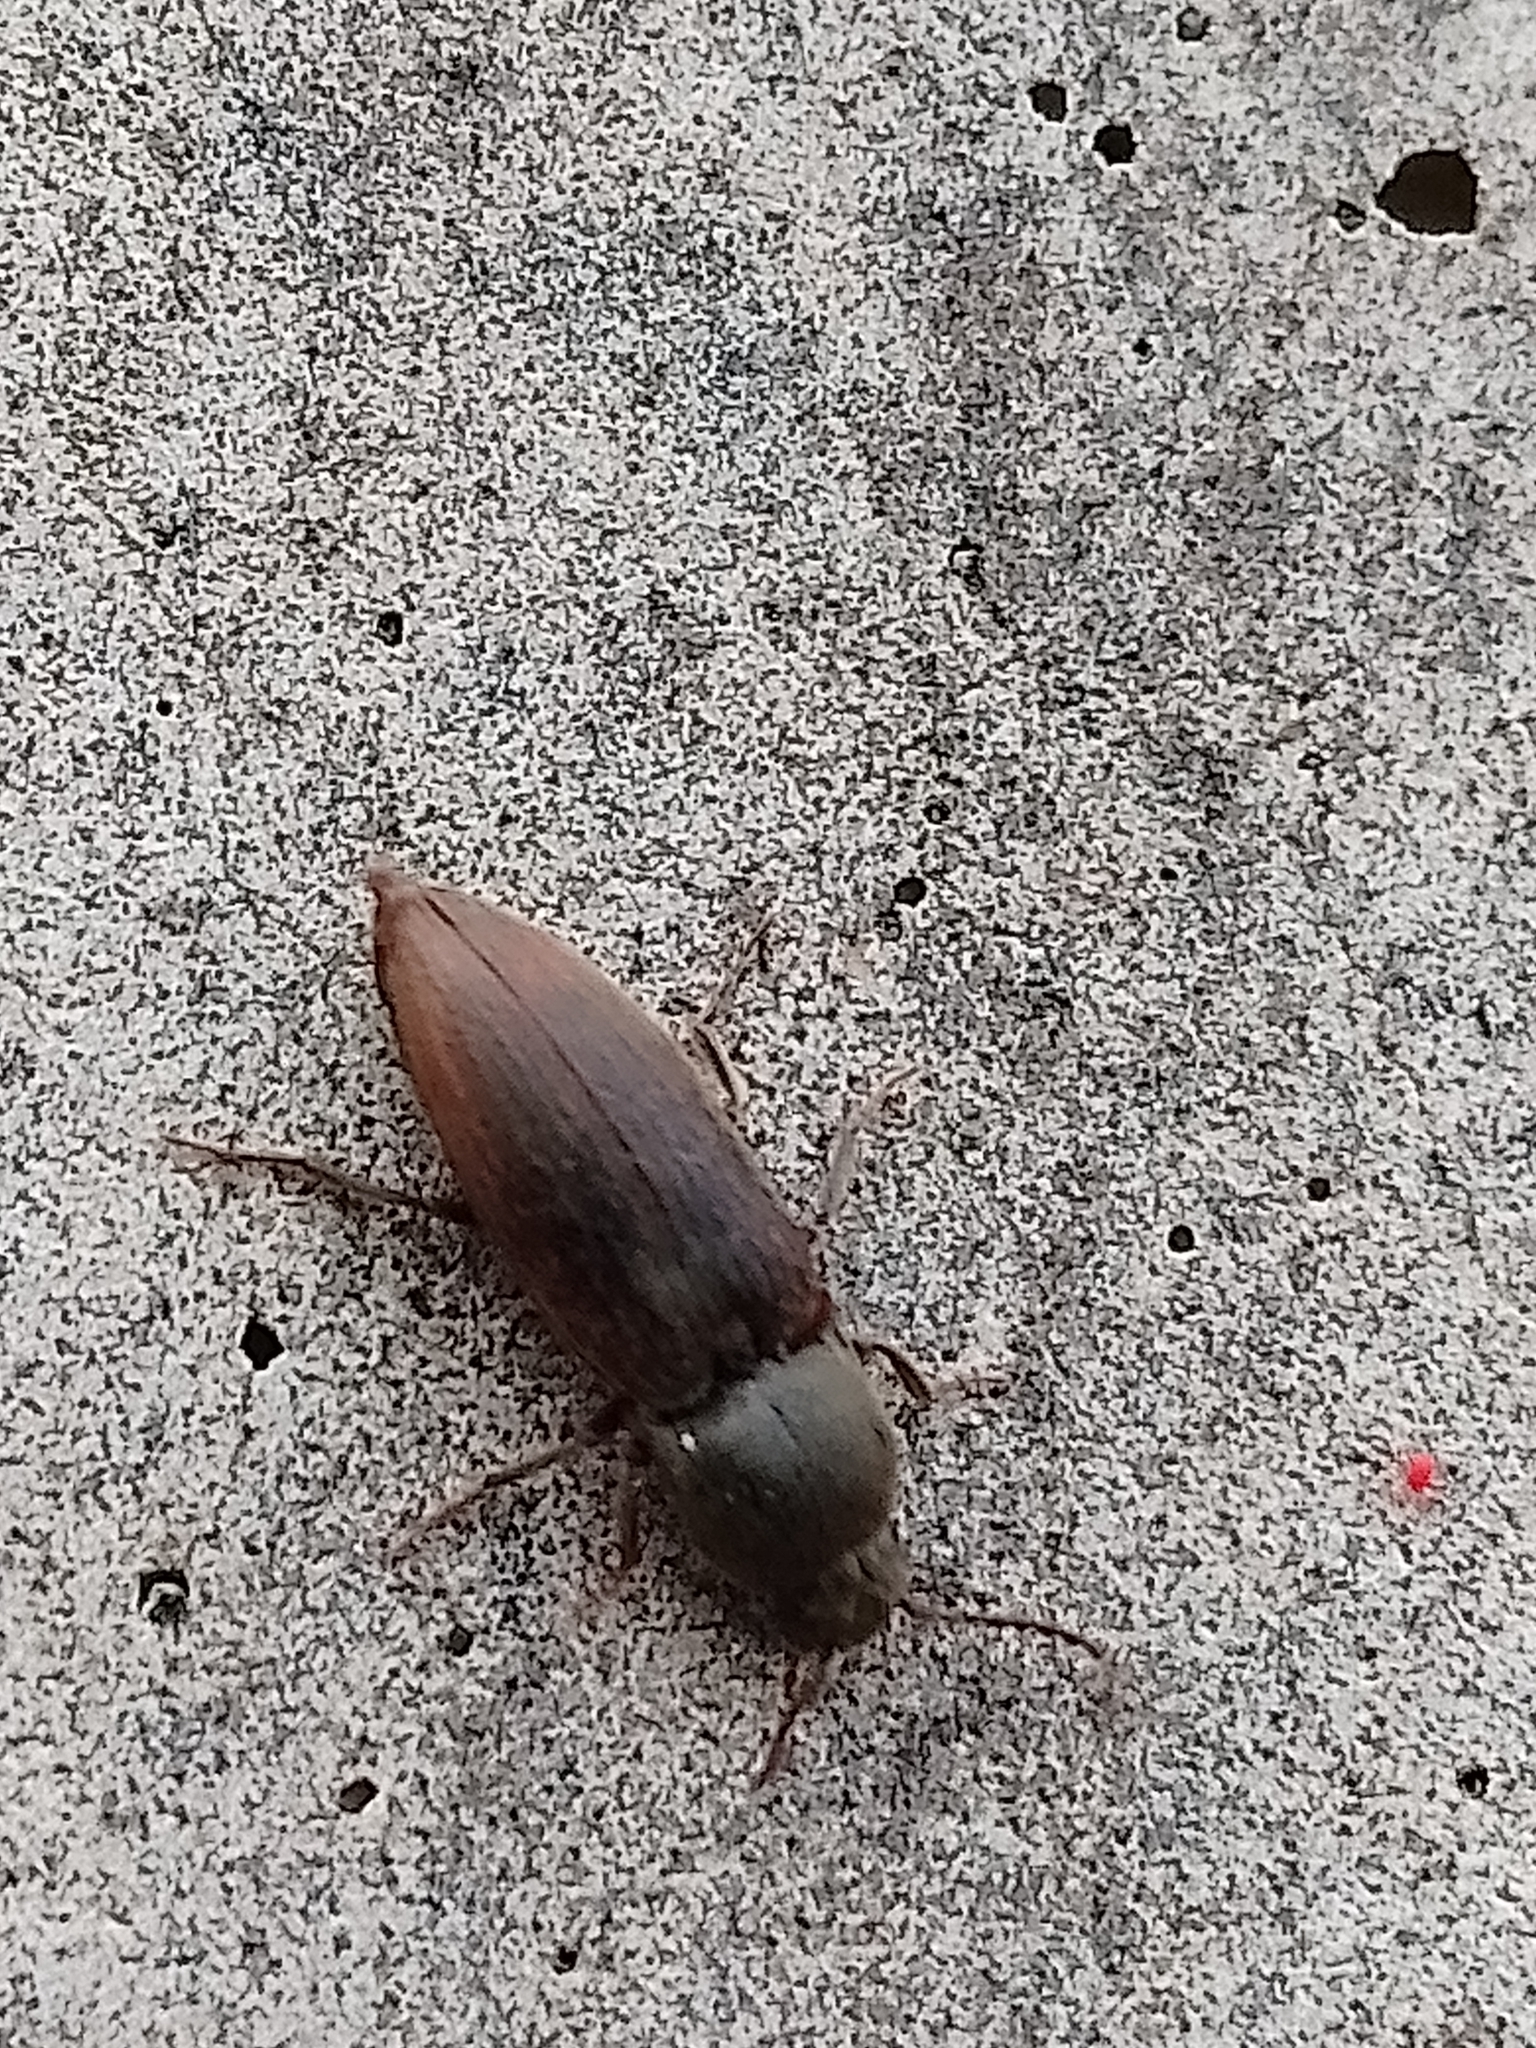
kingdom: Animalia
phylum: Arthropoda
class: Insecta
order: Coleoptera
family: Elateridae
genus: Agriotes
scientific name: Agriotes obscurus
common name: Dusky wireworm
